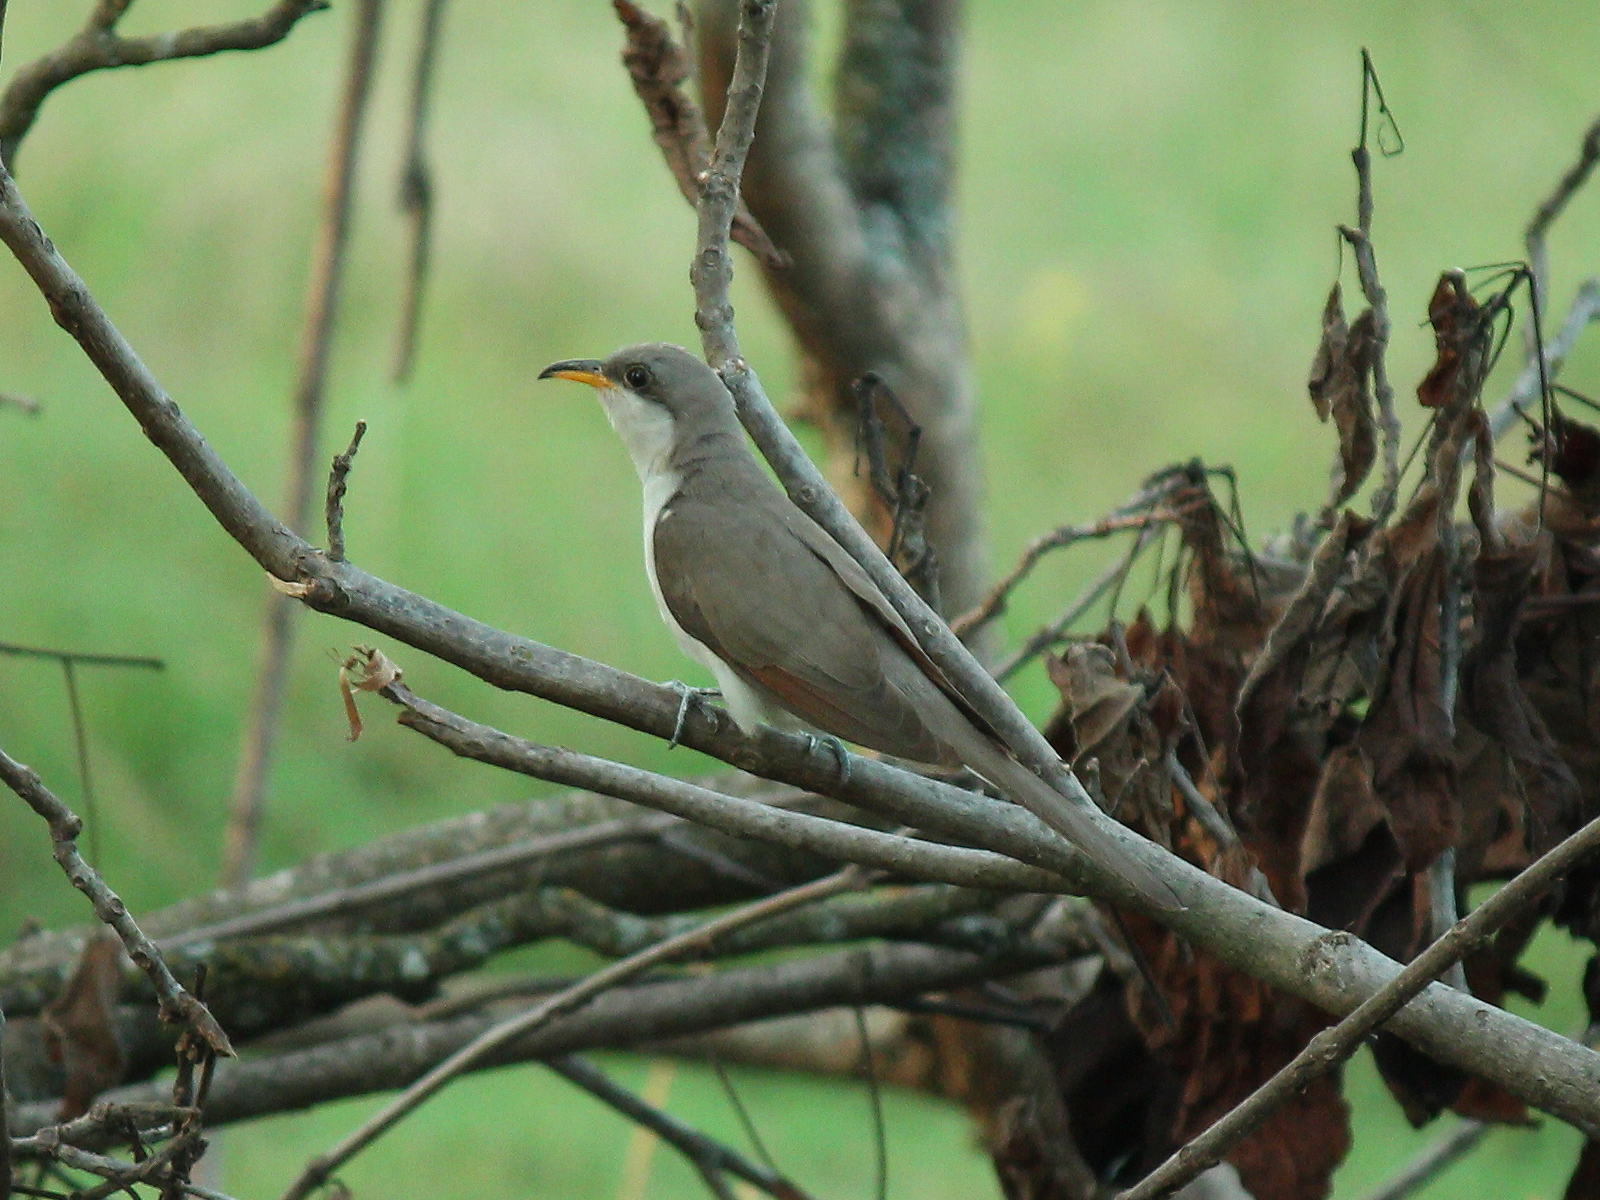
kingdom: Animalia
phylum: Chordata
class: Aves
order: Cuculiformes
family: Cuculidae
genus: Coccyzus
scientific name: Coccyzus americanus
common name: Yellow-billed cuckoo
